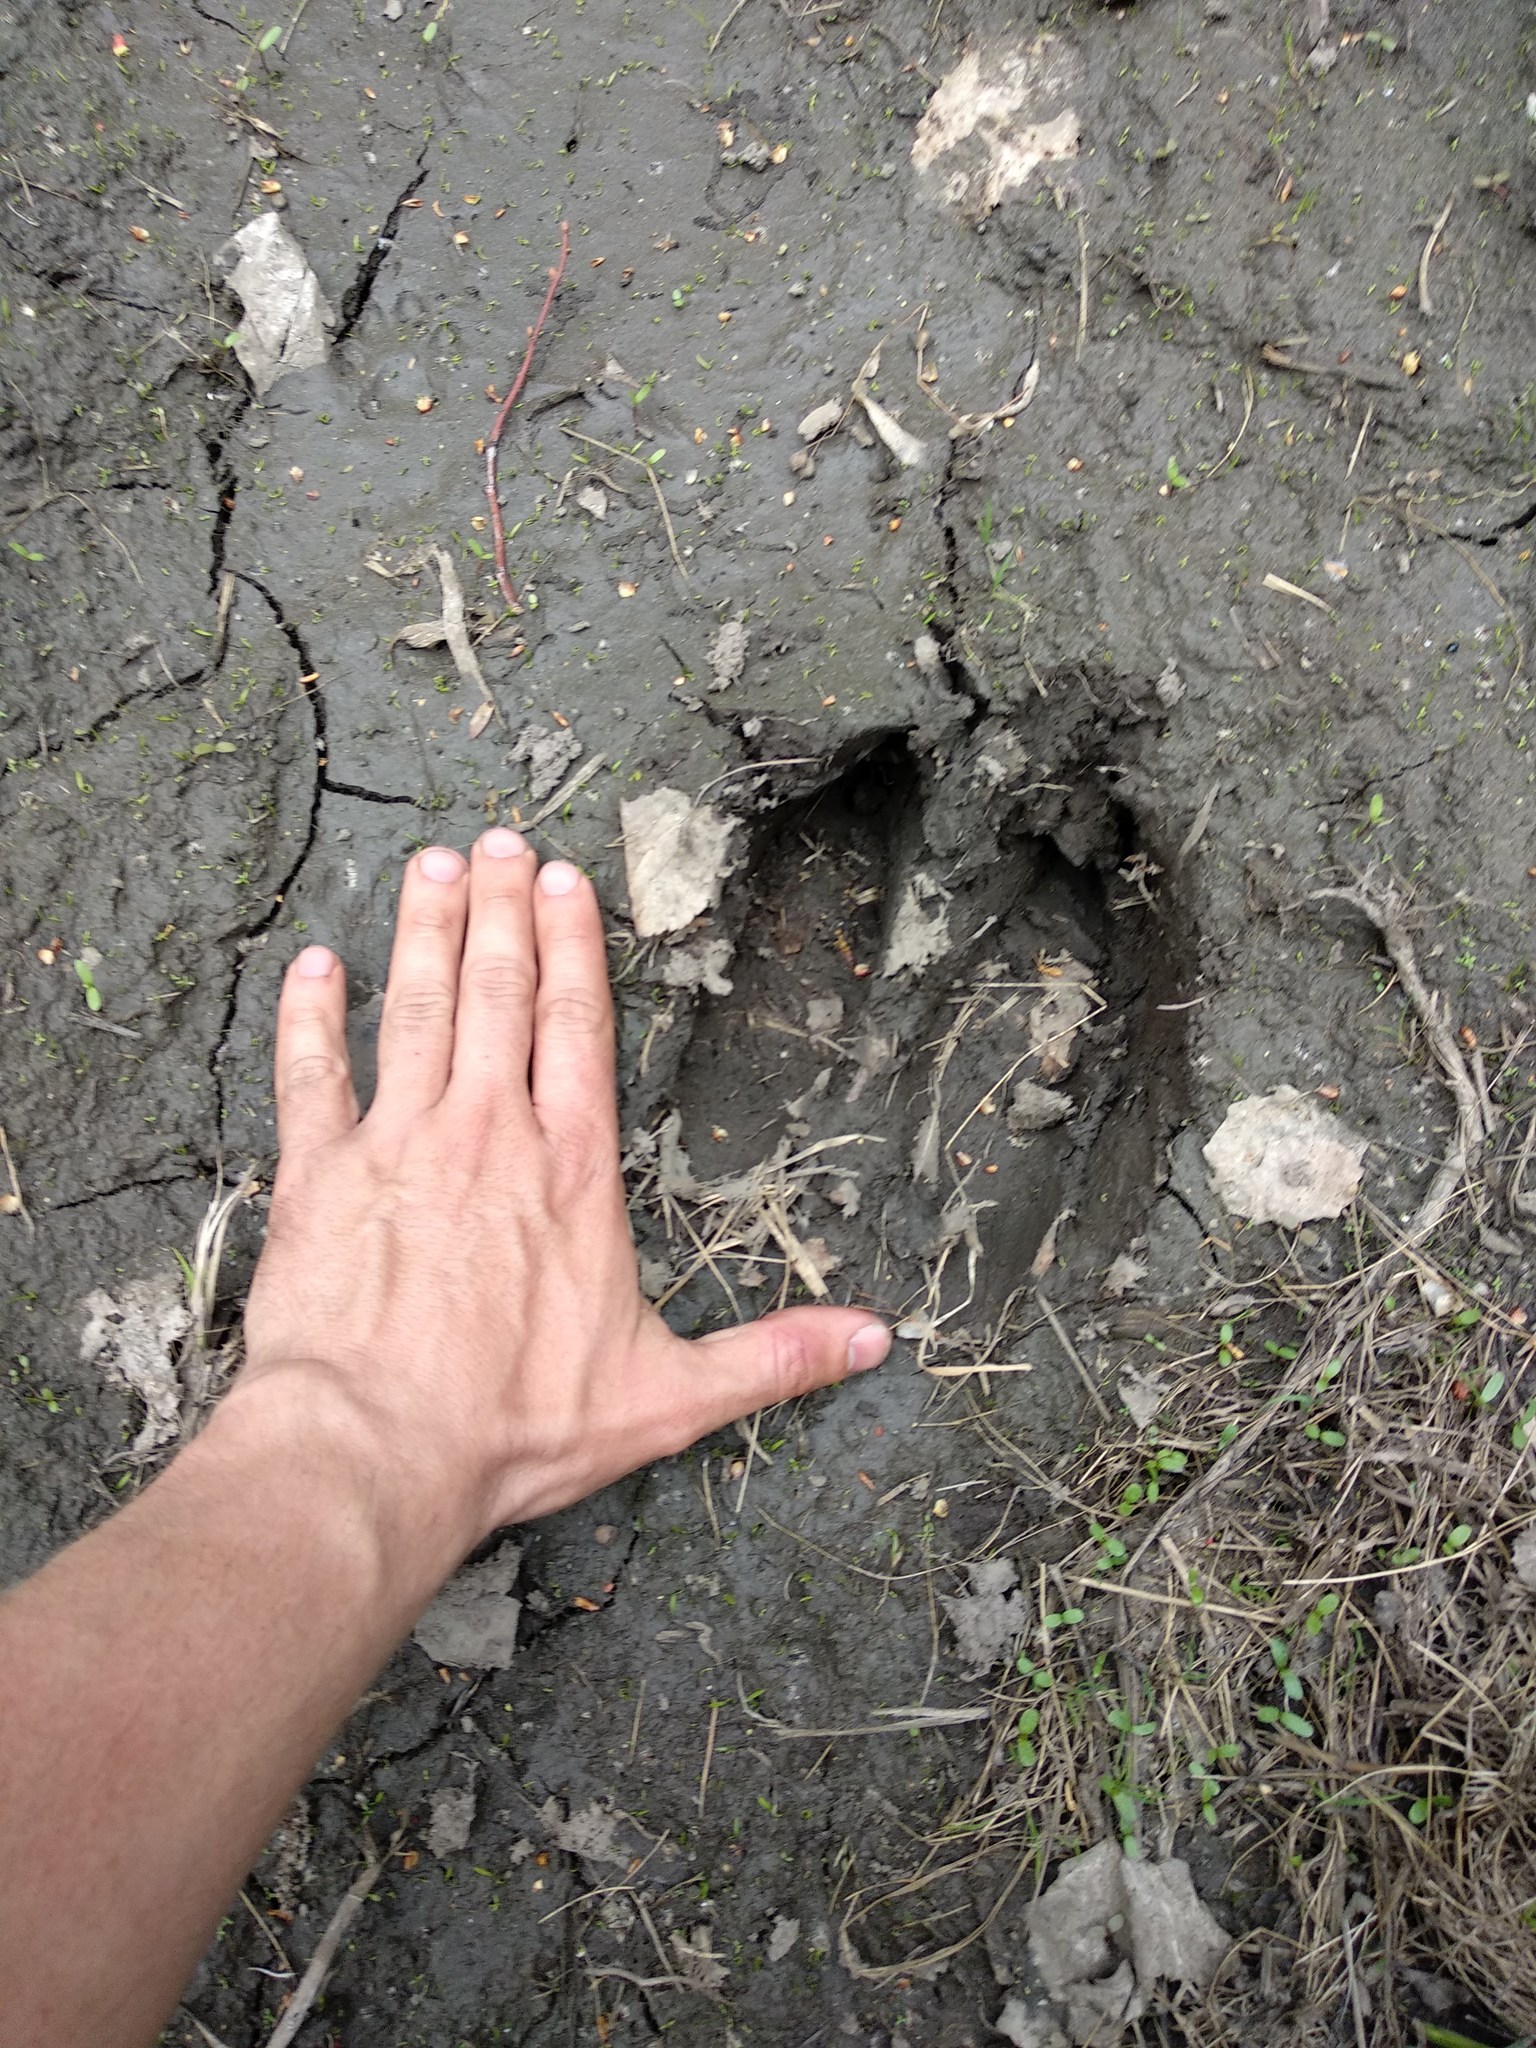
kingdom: Animalia
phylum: Chordata
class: Mammalia
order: Artiodactyla
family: Cervidae
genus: Alces
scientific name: Alces alces
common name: Moose
